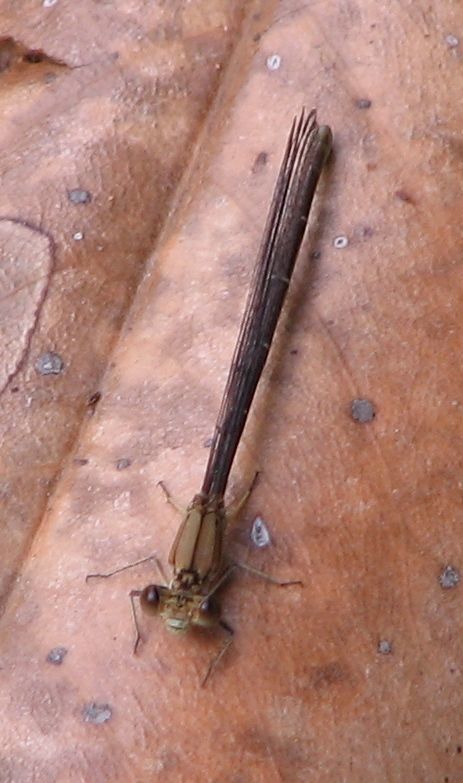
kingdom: Animalia
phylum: Arthropoda
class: Insecta
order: Odonata
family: Coenagrionidae
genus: Argia
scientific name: Argia moesta
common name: Powdered dancer
